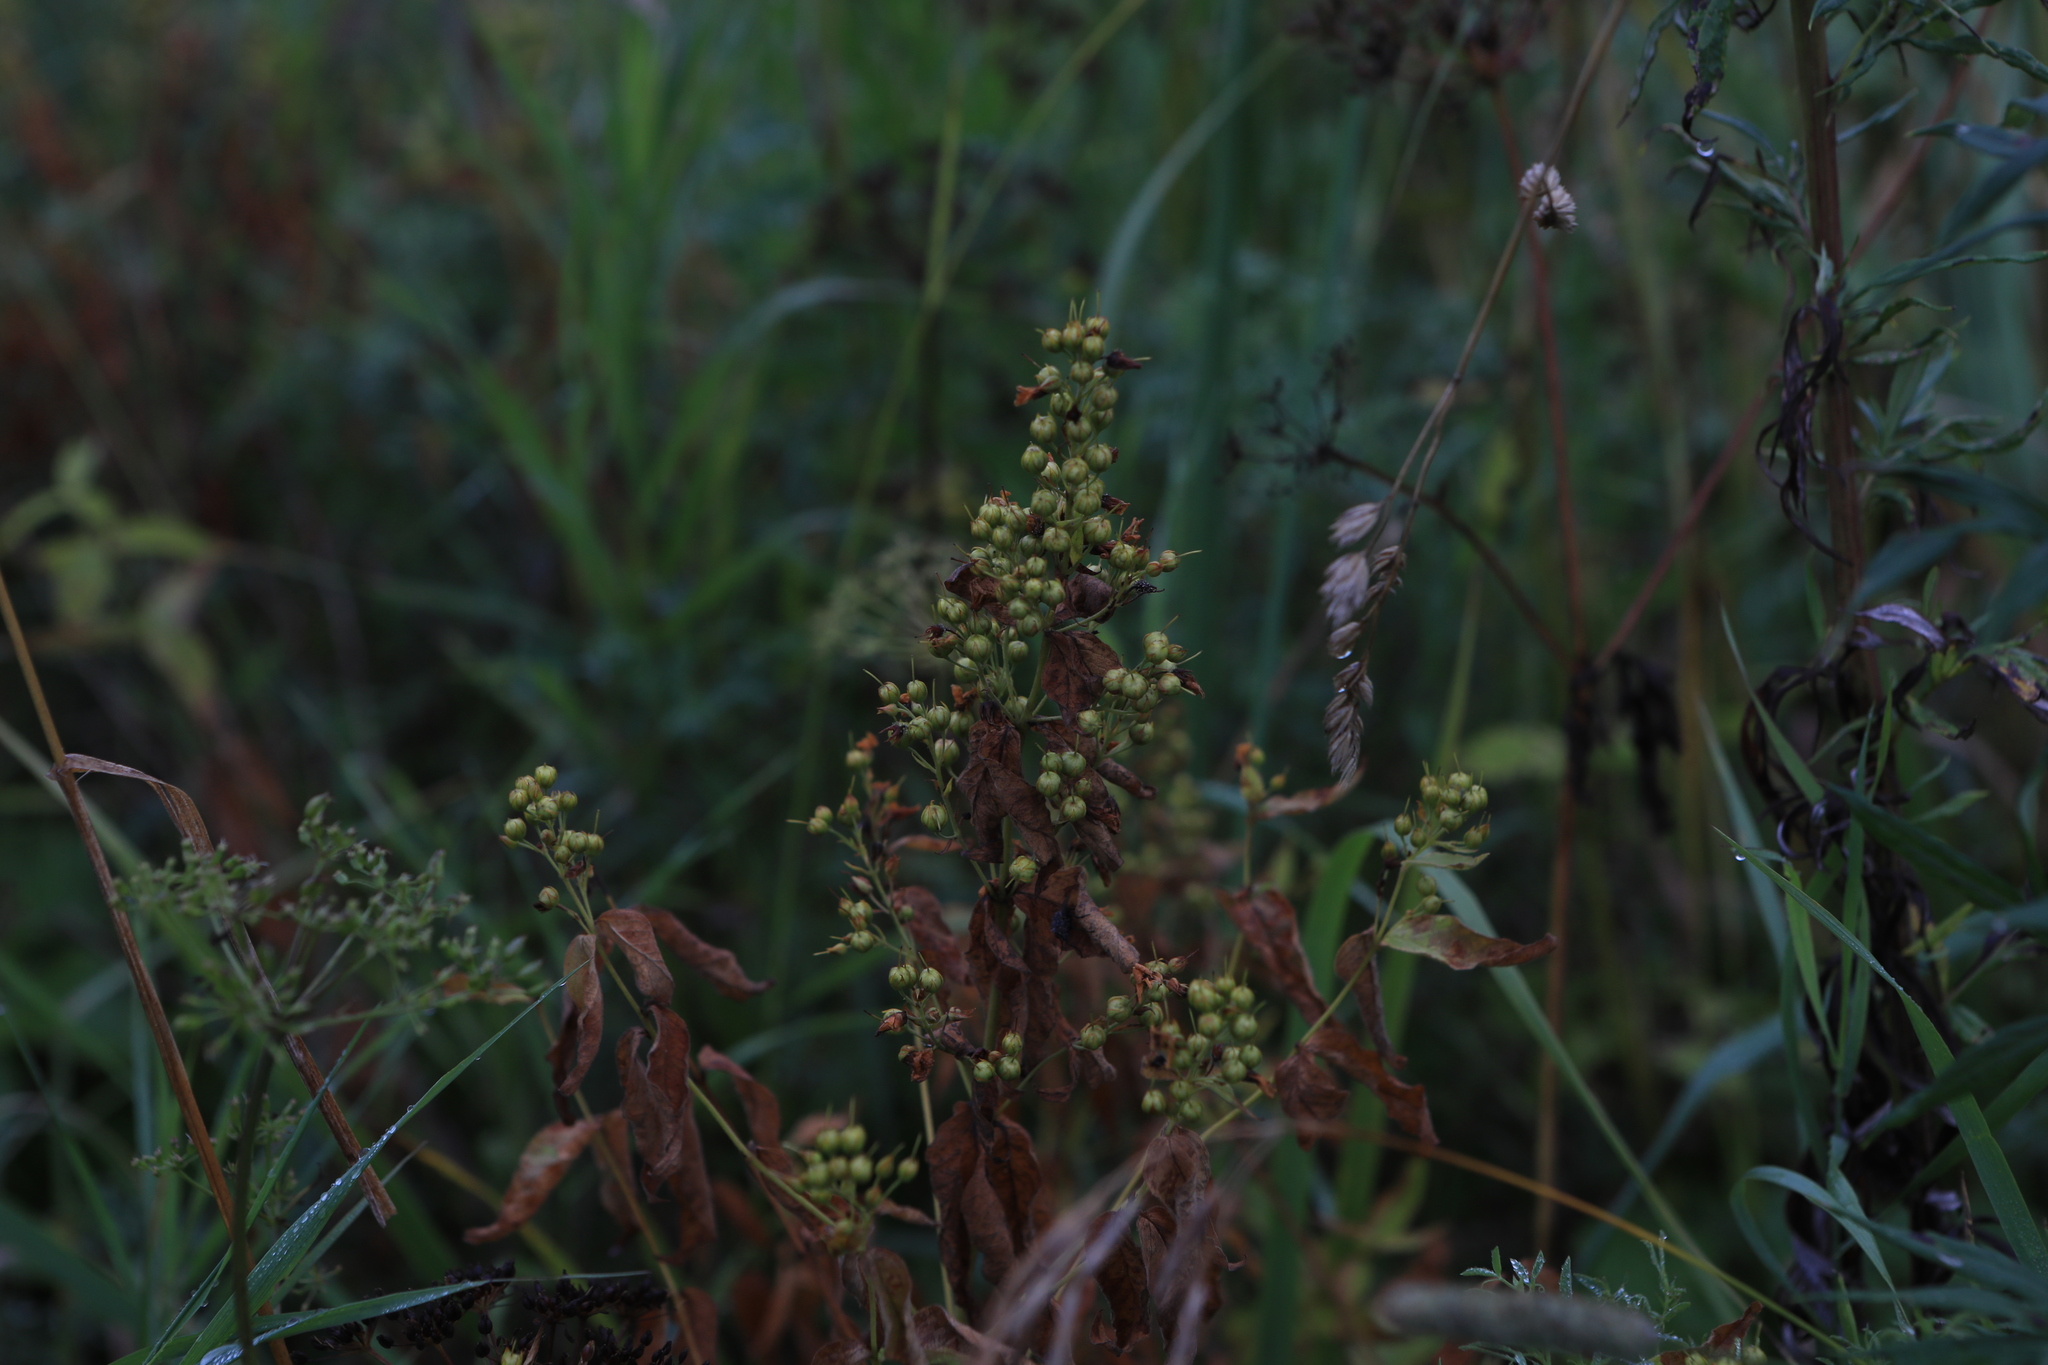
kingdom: Plantae
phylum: Tracheophyta
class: Magnoliopsida
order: Ericales
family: Primulaceae
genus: Lysimachia
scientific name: Lysimachia vulgaris
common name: Yellow loosestrife
